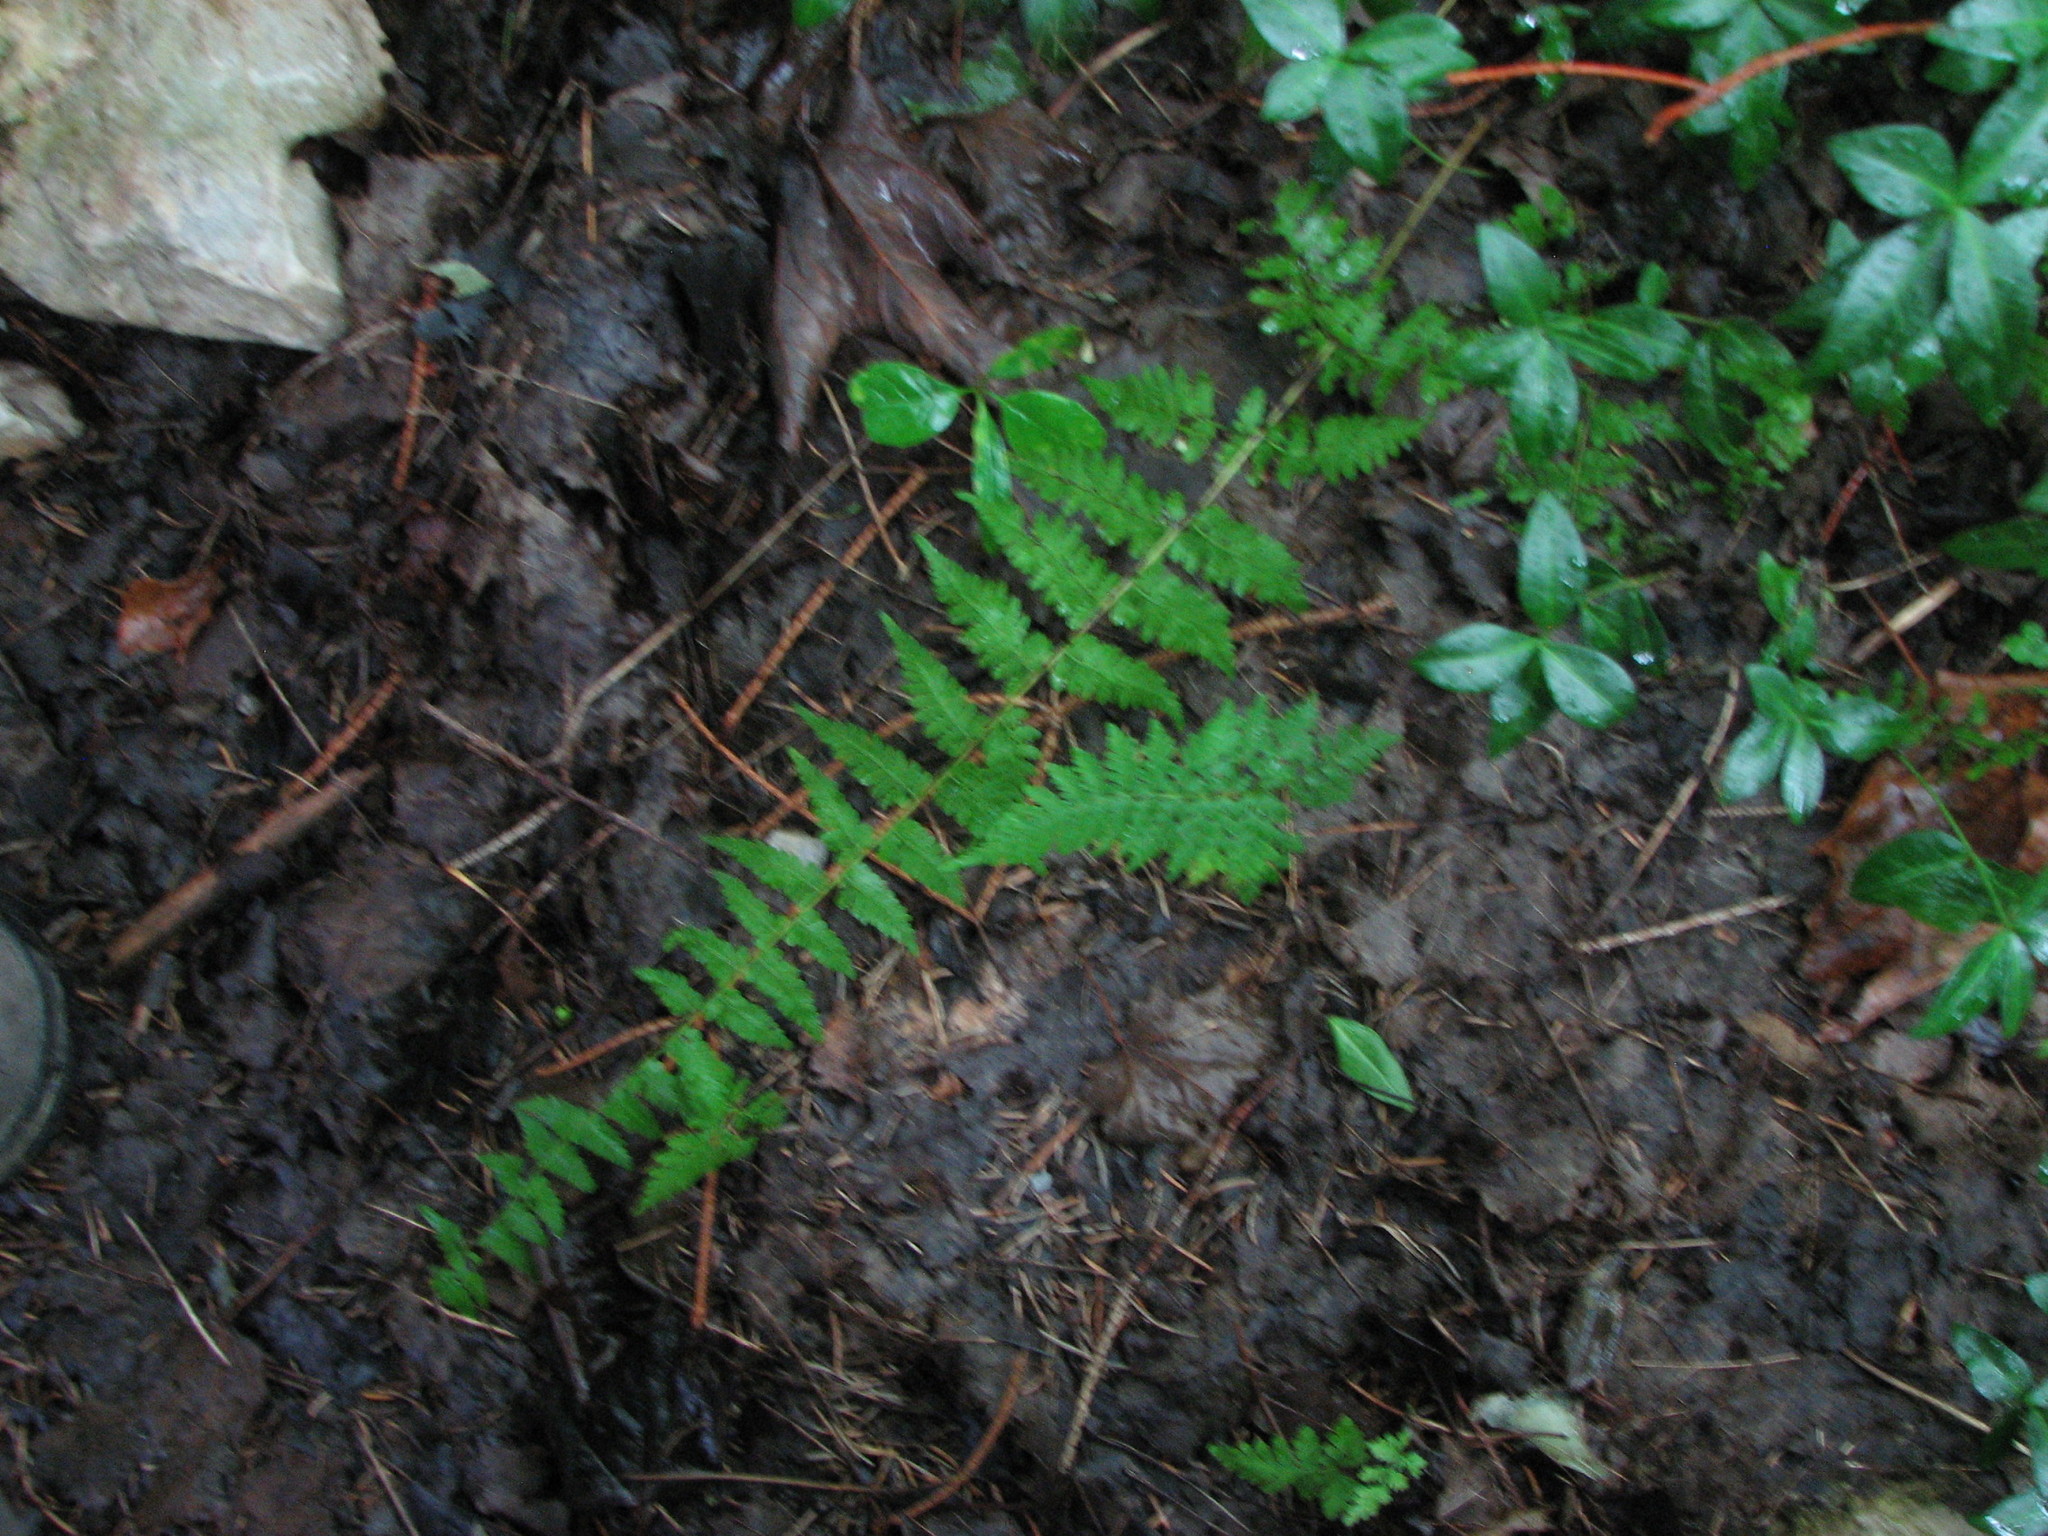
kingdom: Plantae
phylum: Tracheophyta
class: Polypodiopsida
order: Polypodiales
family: Cystopteridaceae
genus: Cystopteris
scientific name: Cystopteris bulbifera
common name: Bulblet bladder fern
